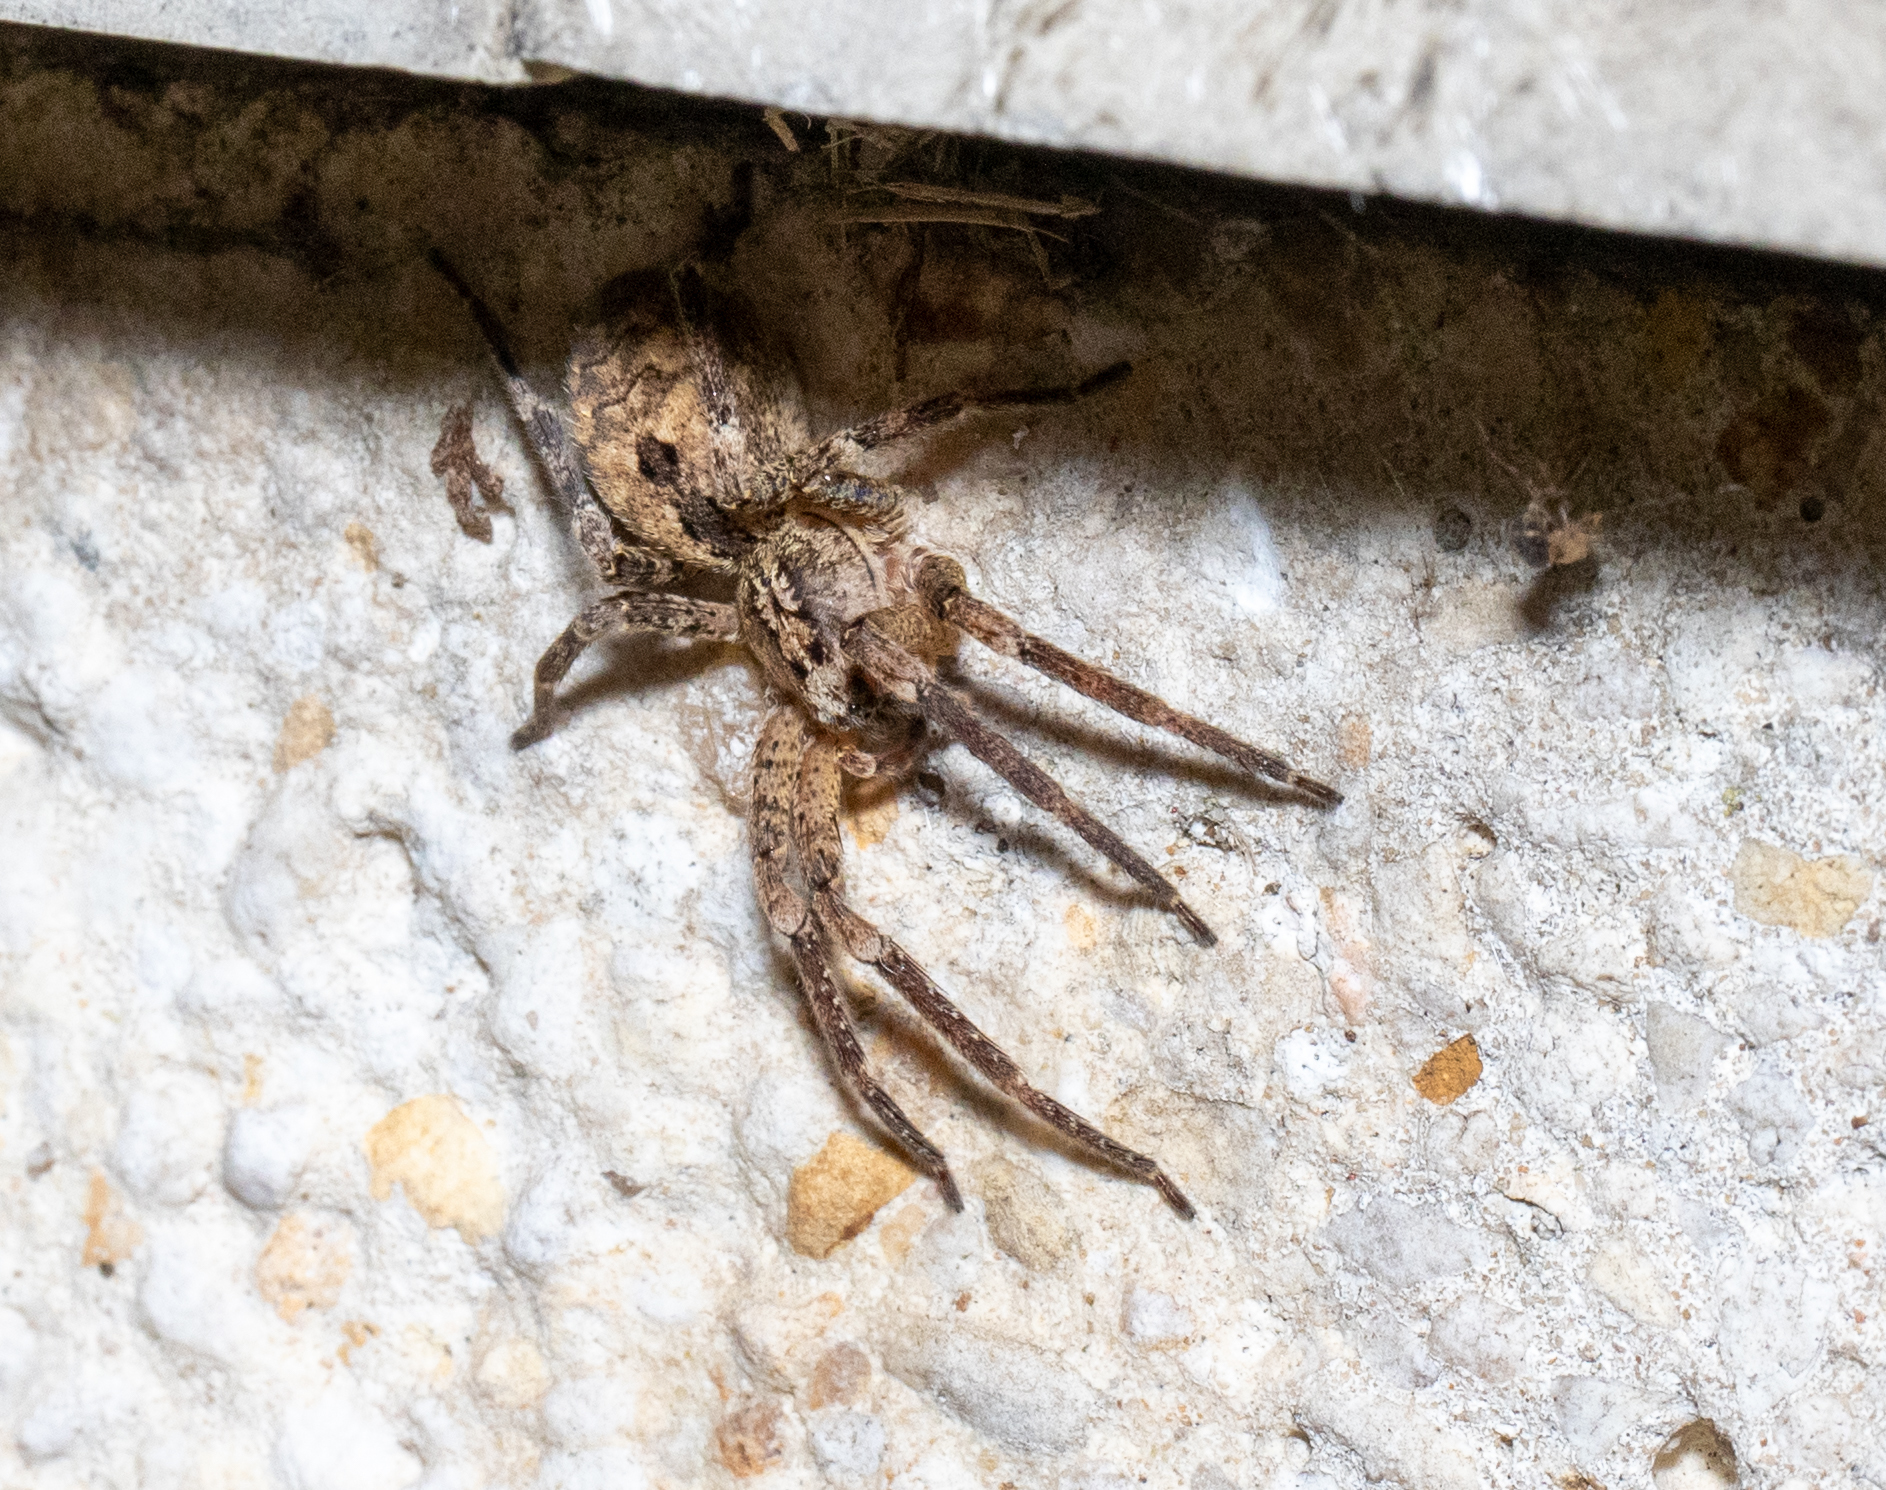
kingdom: Animalia
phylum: Arthropoda
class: Arachnida
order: Araneae
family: Zoropsidae
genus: Zoropsis
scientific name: Zoropsis spinimana
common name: Zoropsid spider
